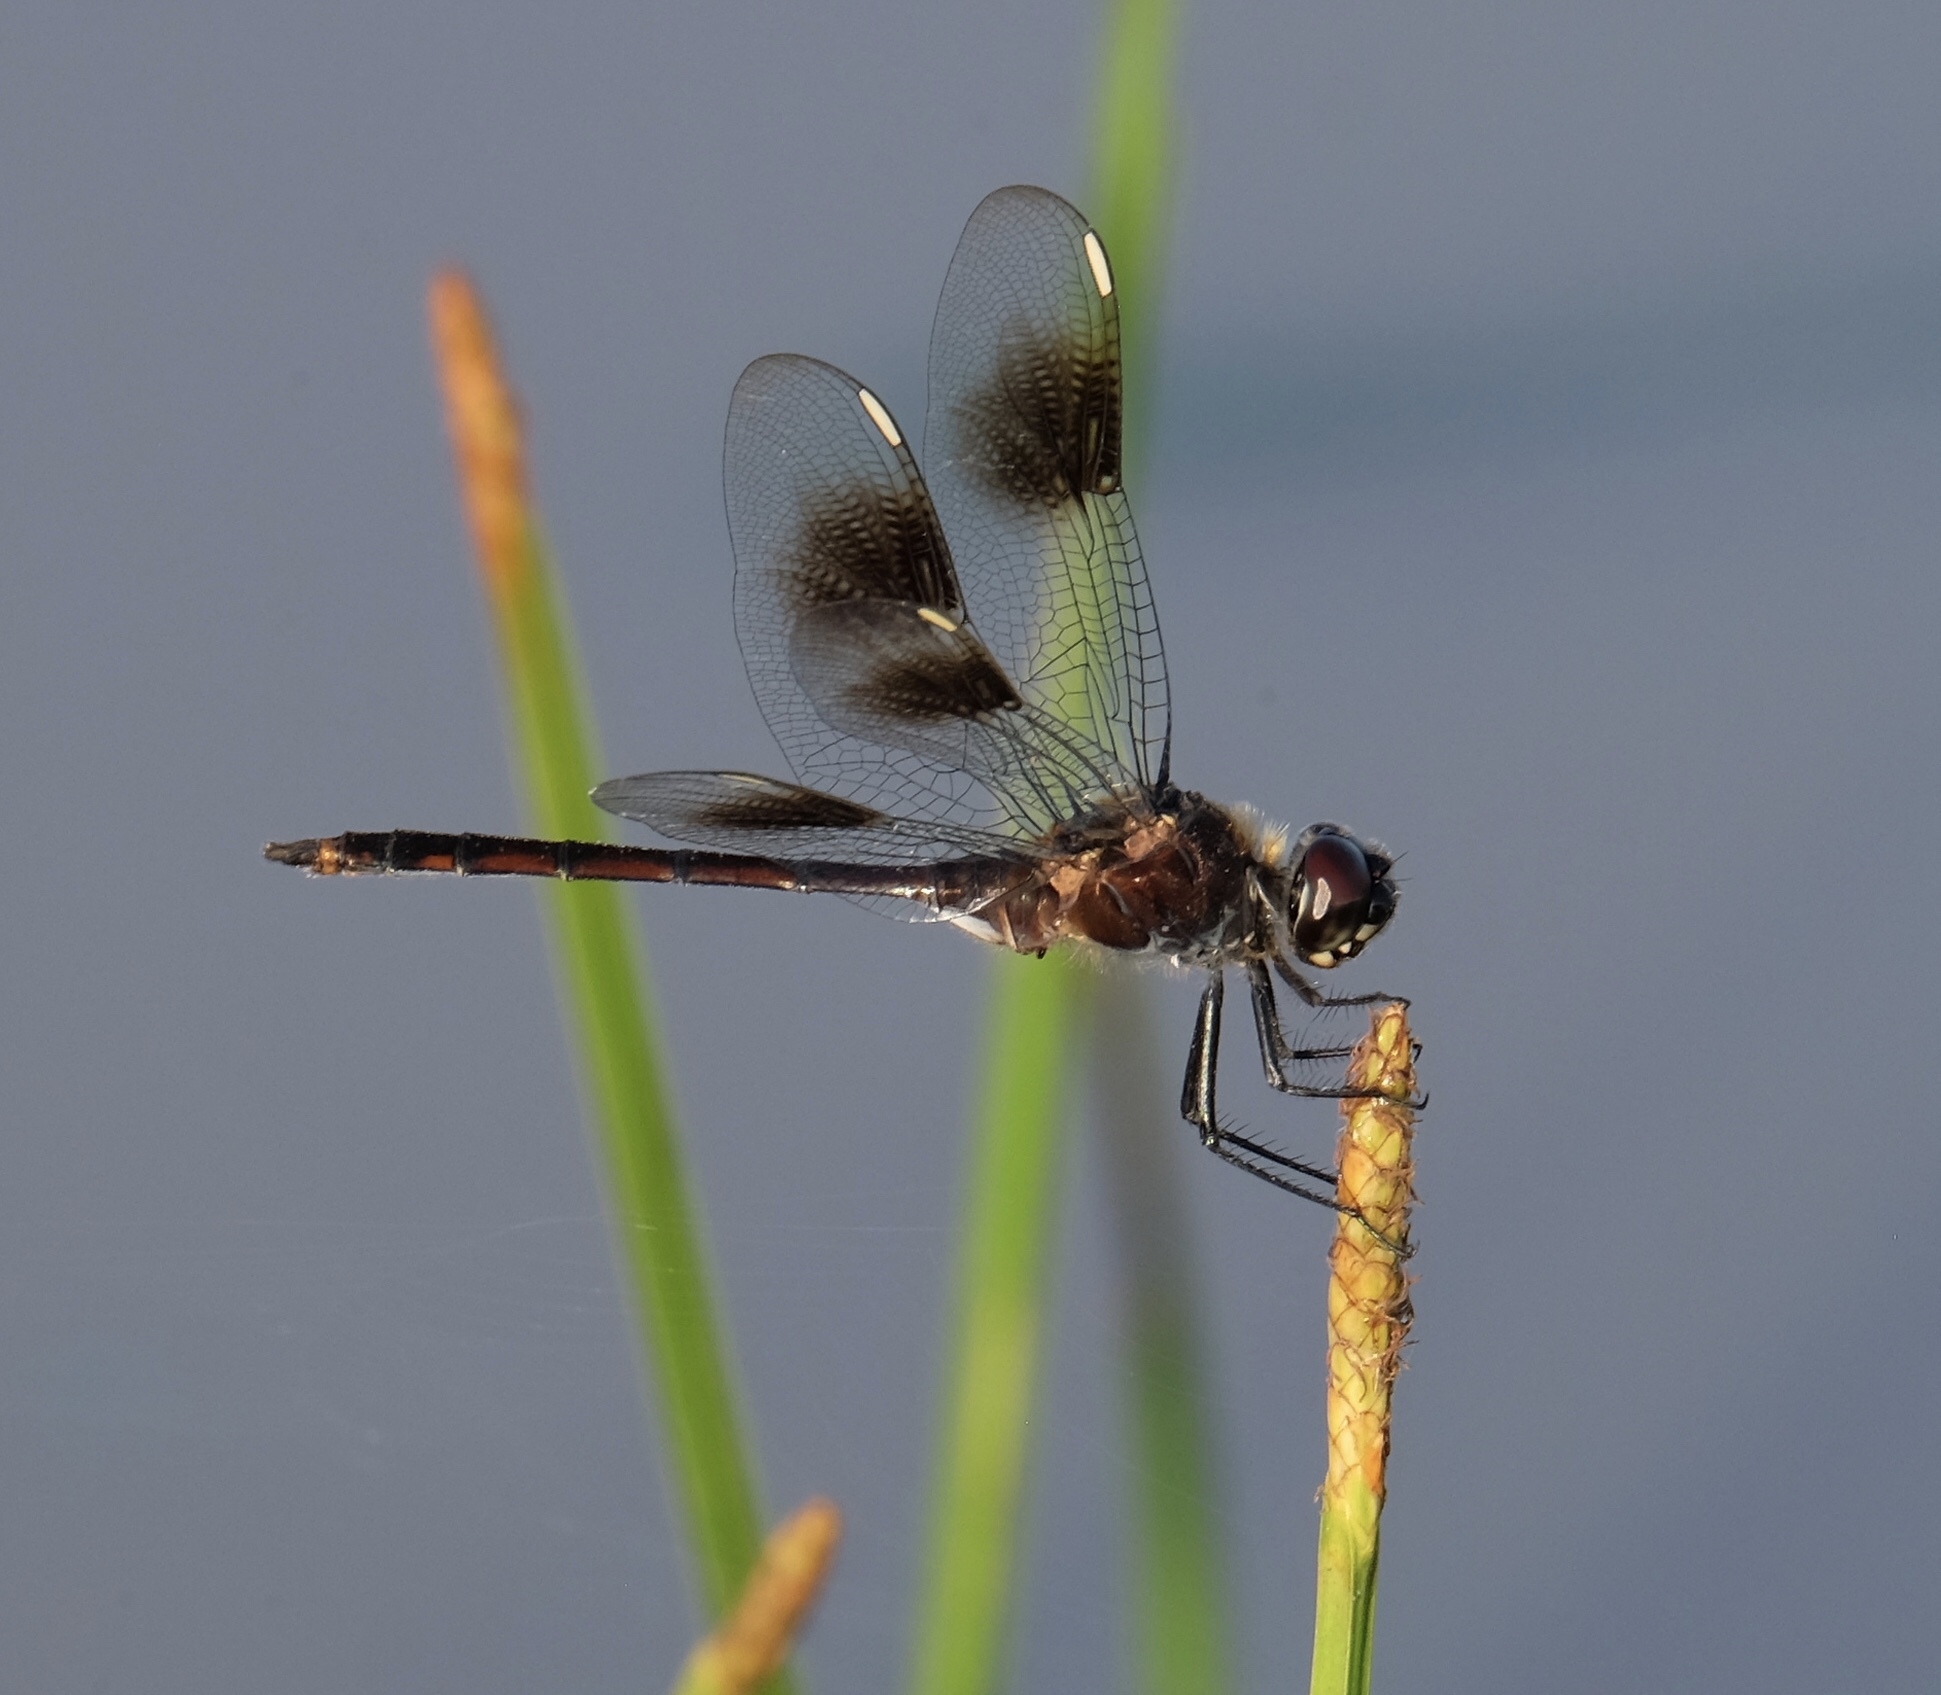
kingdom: Animalia
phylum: Arthropoda
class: Insecta
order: Odonata
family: Libellulidae
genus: Brachymesia
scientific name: Brachymesia gravida
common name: Four-spotted pennant
